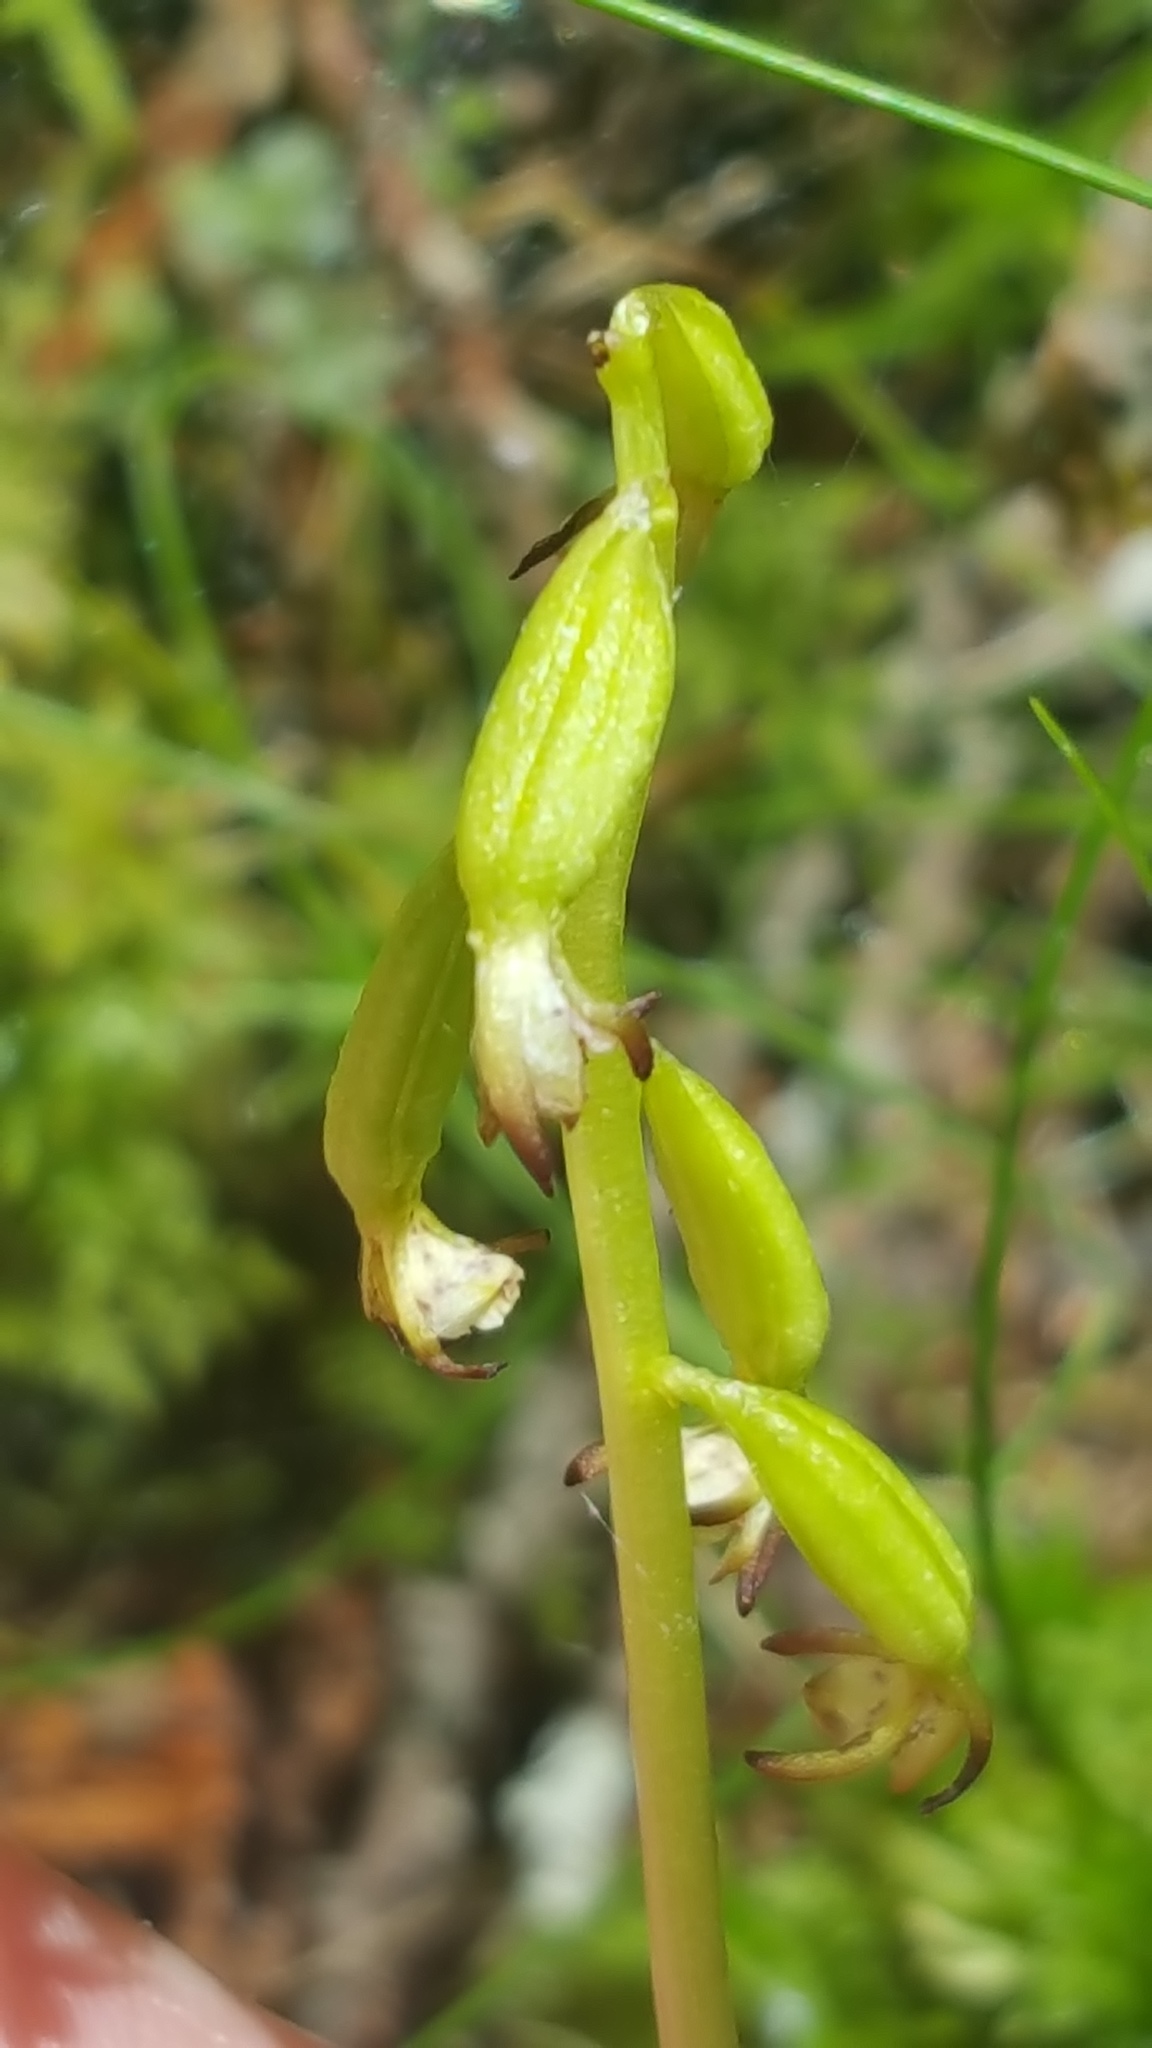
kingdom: Plantae
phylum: Tracheophyta
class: Liliopsida
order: Asparagales
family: Orchidaceae
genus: Corallorhiza
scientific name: Corallorhiza trifida
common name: Yellow coralroot
